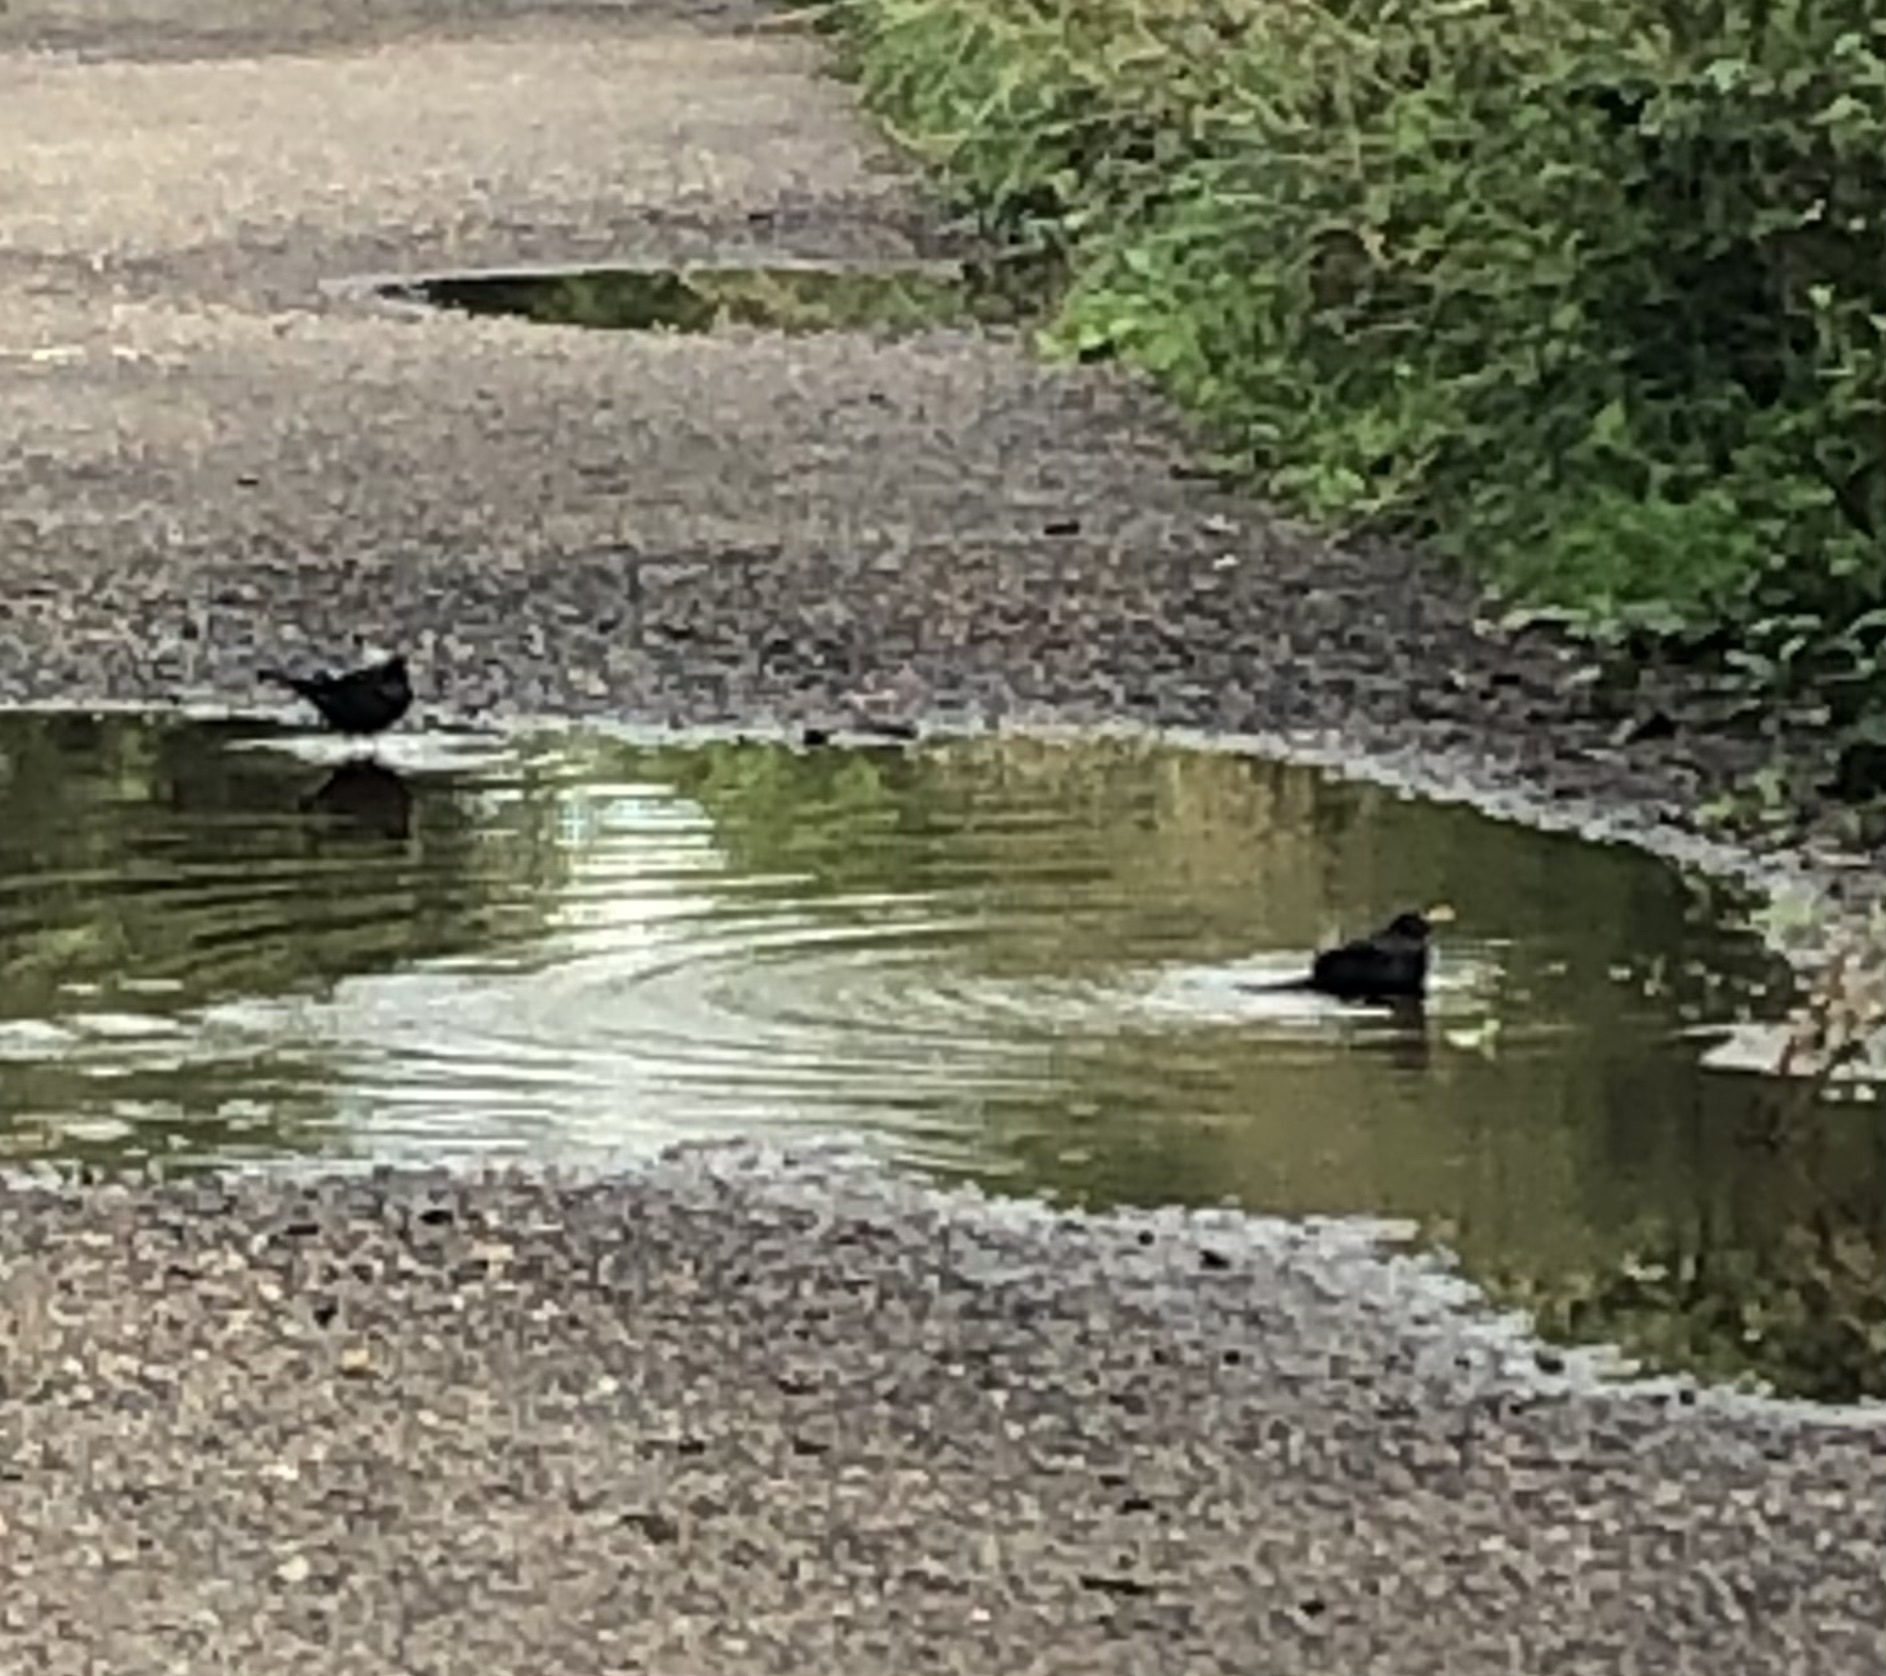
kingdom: Animalia
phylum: Chordata
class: Aves
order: Passeriformes
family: Turdidae
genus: Turdus
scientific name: Turdus merula
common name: Common blackbird
